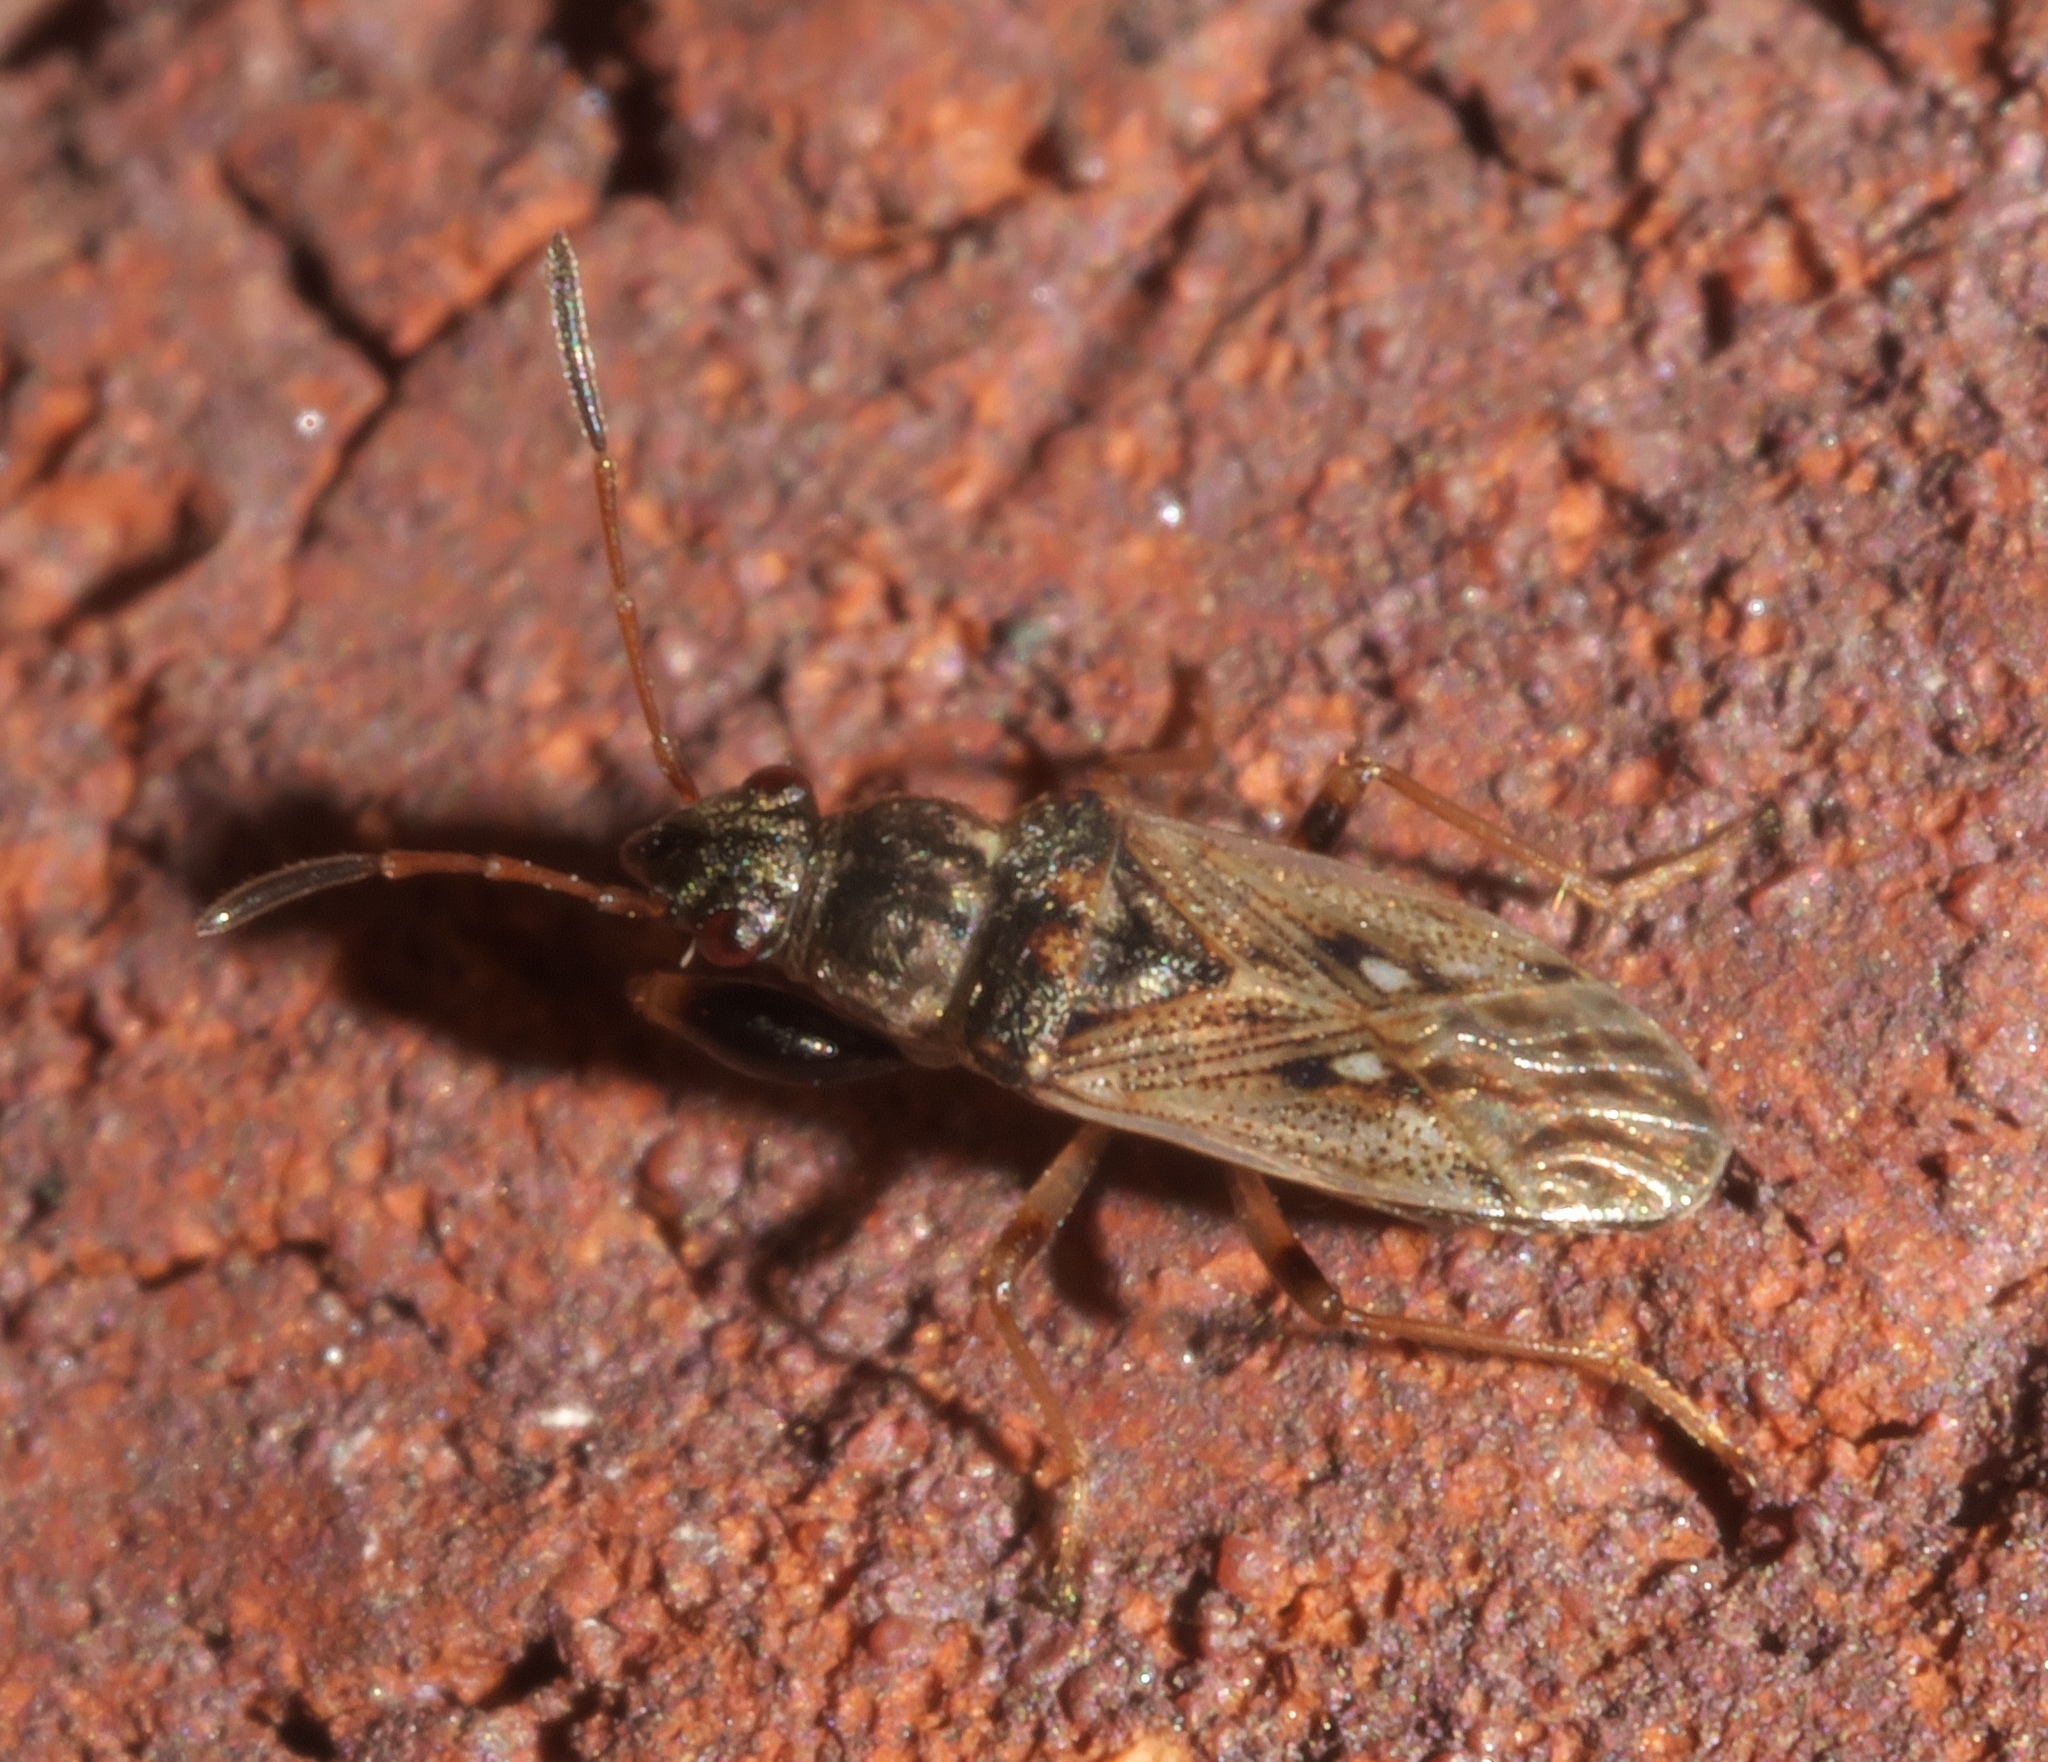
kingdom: Animalia
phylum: Arthropoda
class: Insecta
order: Hemiptera
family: Rhyparochromidae
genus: Pseudopachybrachius
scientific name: Pseudopachybrachius basalis
